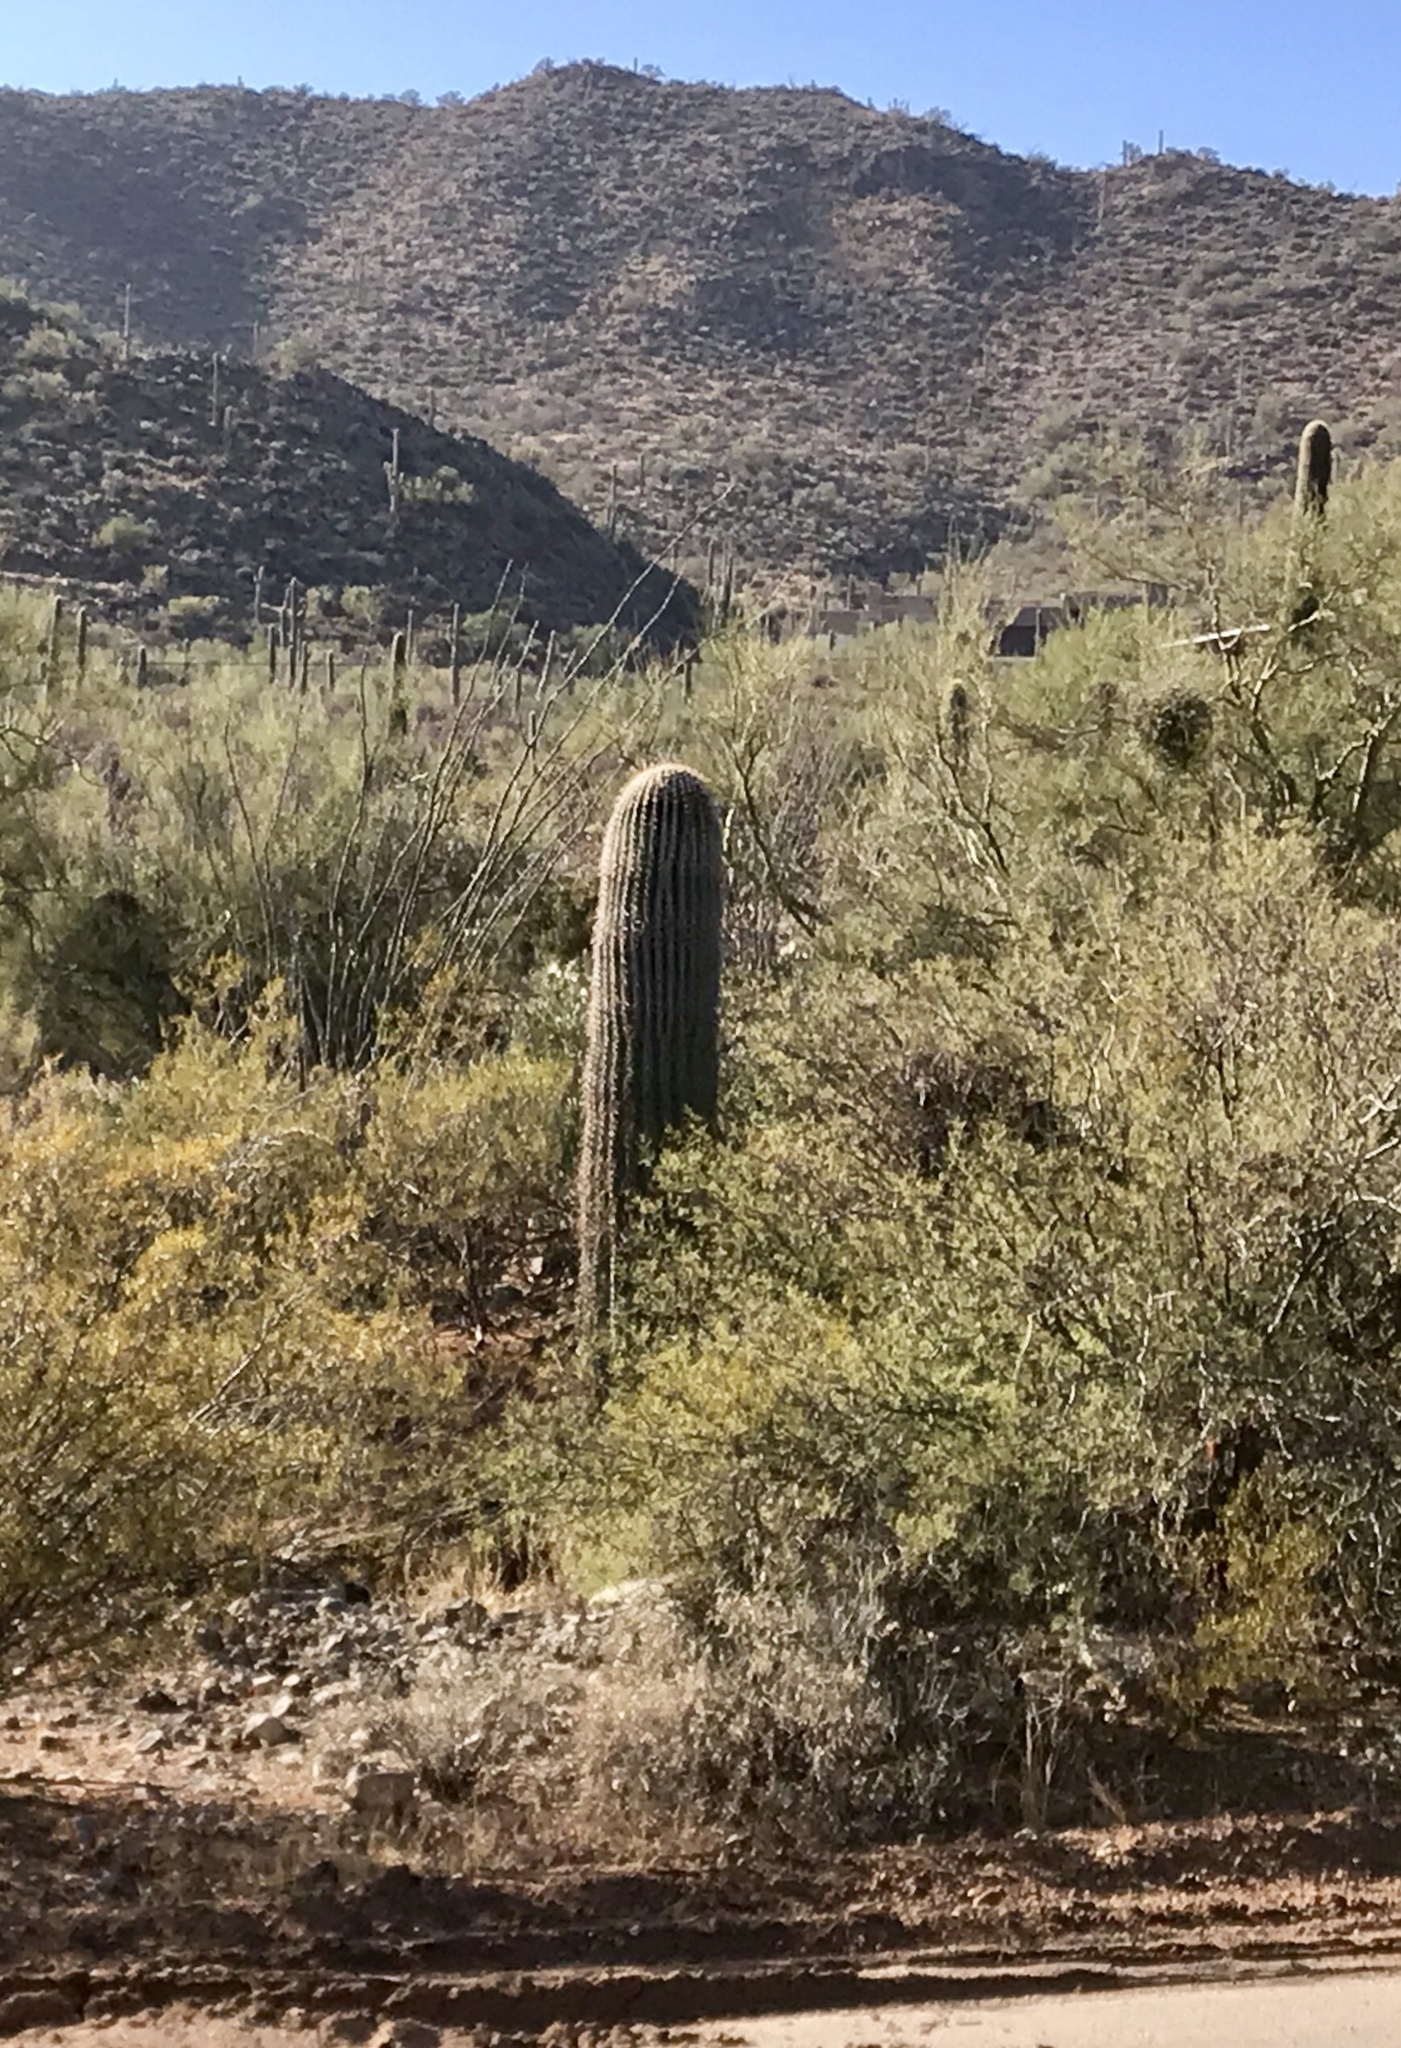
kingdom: Plantae
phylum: Tracheophyta
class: Magnoliopsida
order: Caryophyllales
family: Cactaceae
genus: Carnegiea
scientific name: Carnegiea gigantea
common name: Saguaro
